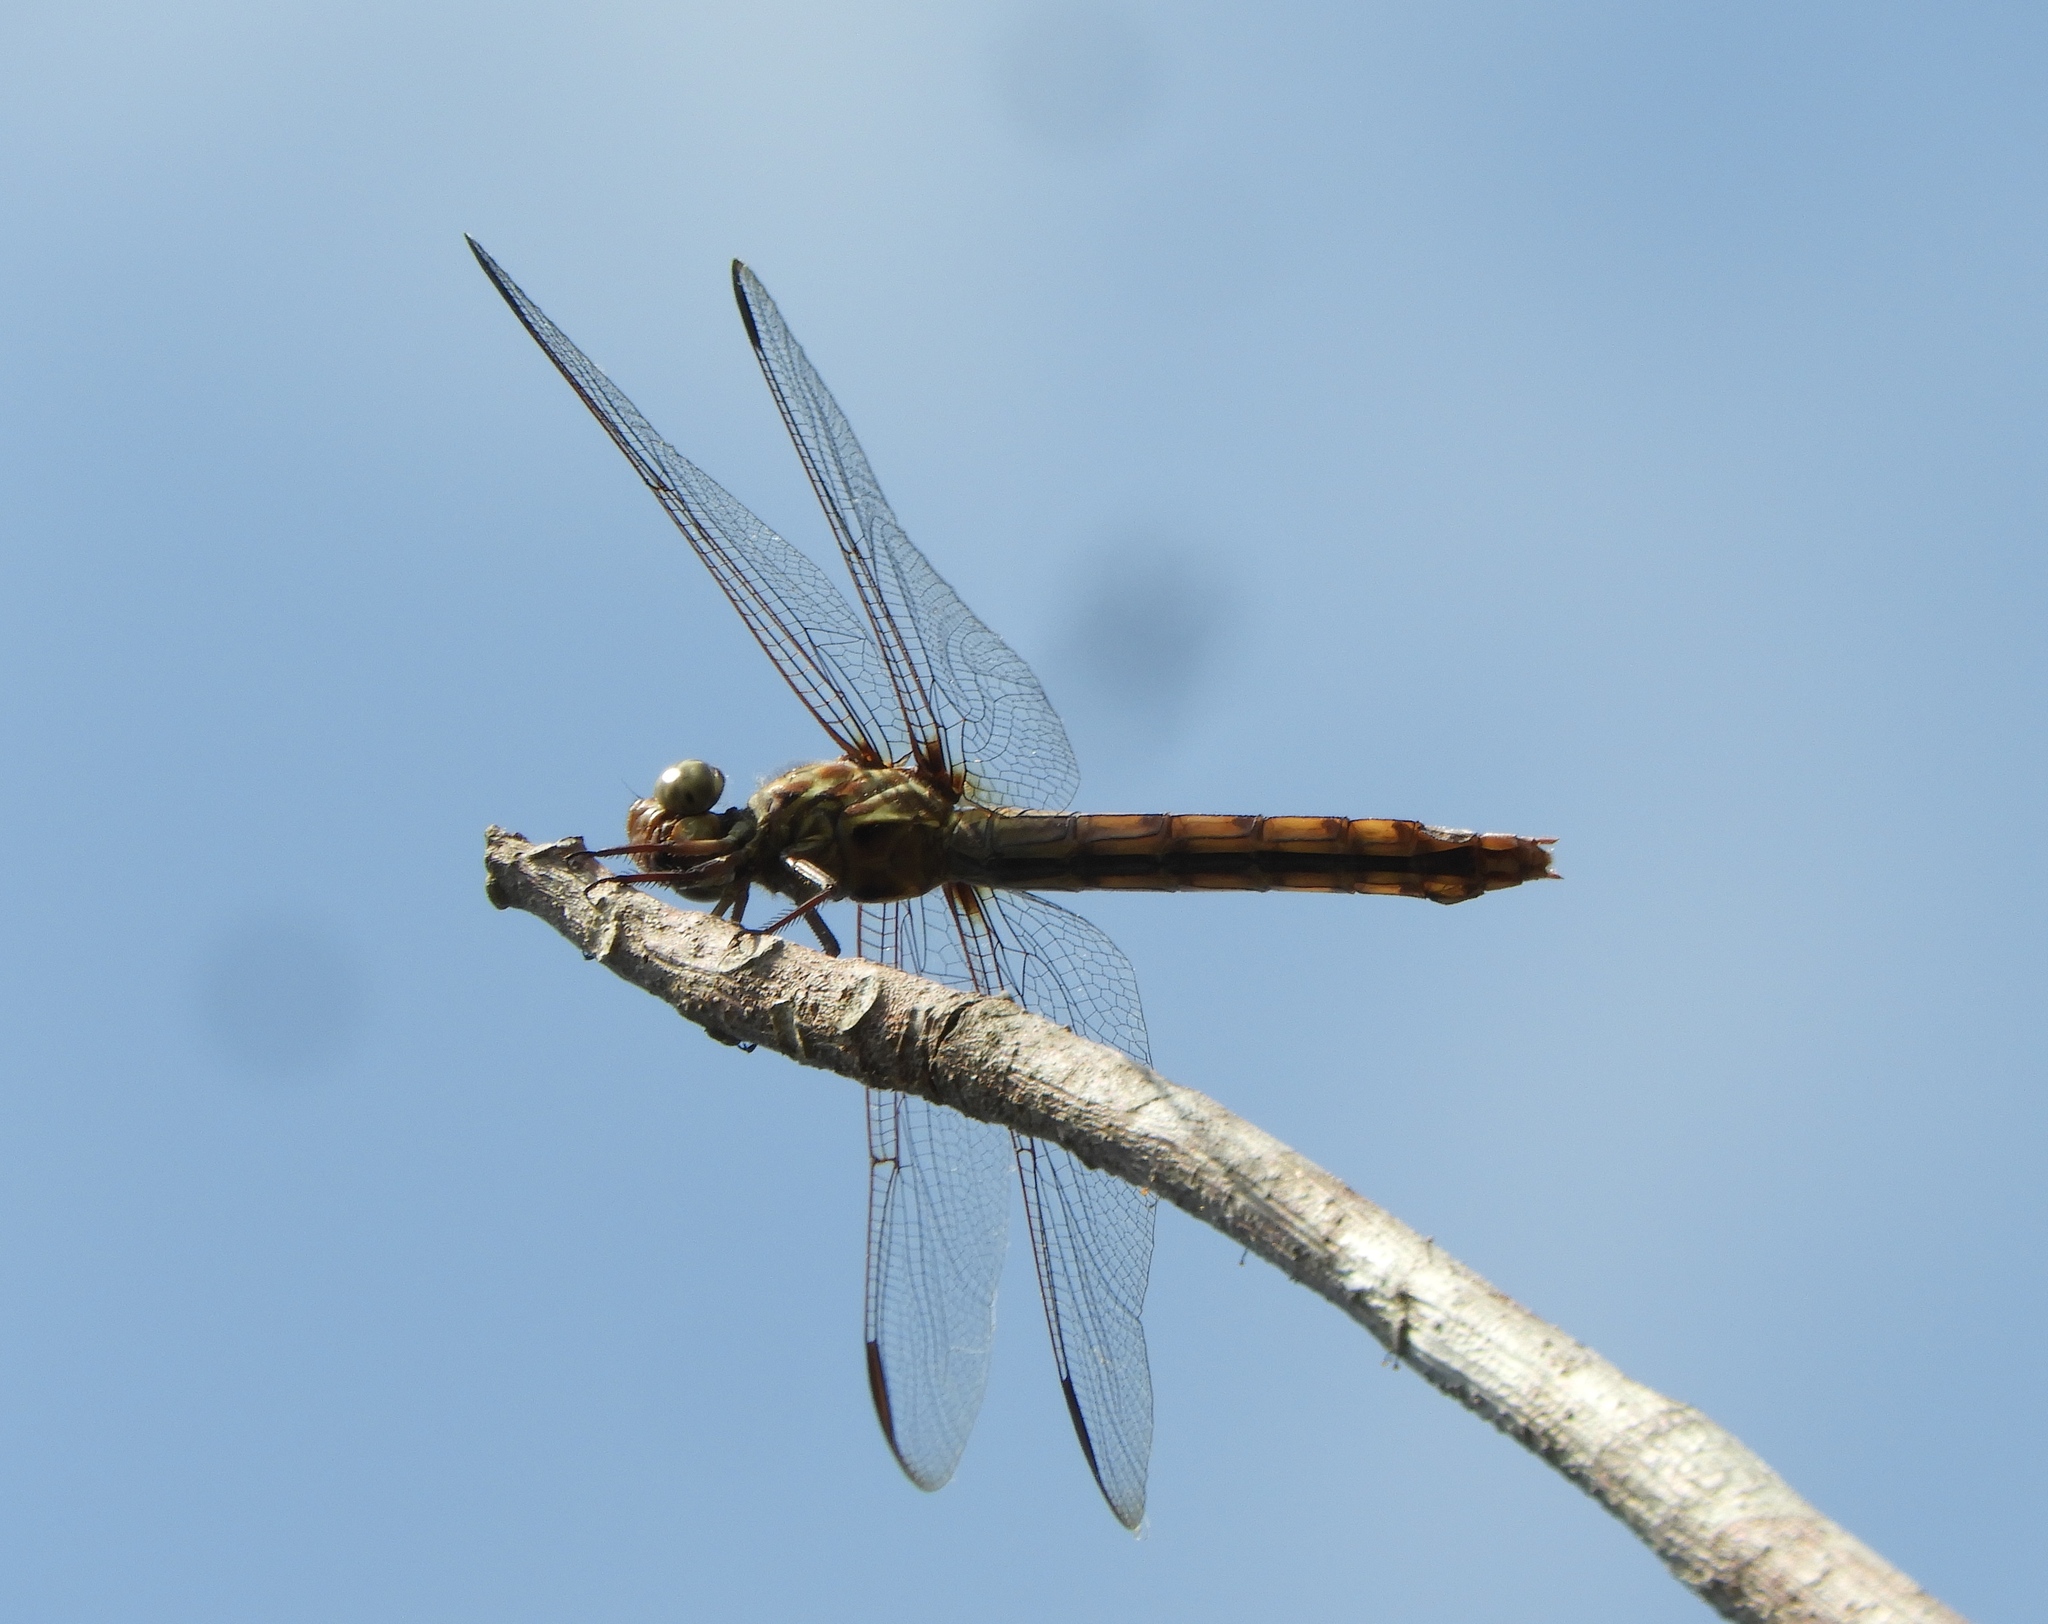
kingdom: Animalia
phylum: Arthropoda
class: Insecta
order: Odonata
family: Libellulidae
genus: Orthemis
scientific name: Orthemis ferruginea
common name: Roseate skimmer
